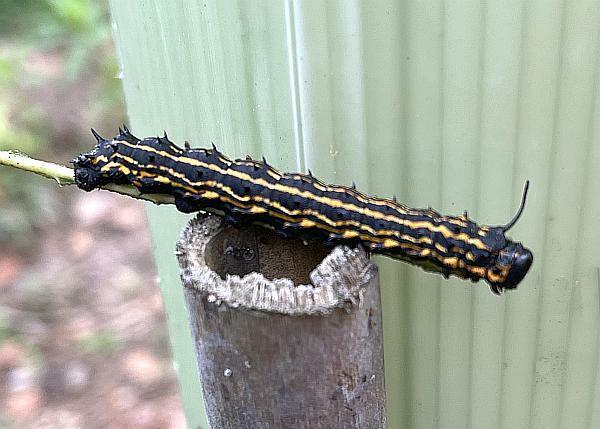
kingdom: Animalia
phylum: Arthropoda
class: Insecta
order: Lepidoptera
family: Saturniidae
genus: Anisota
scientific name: Anisota senatoria
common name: Orange-striped oakworm moth
